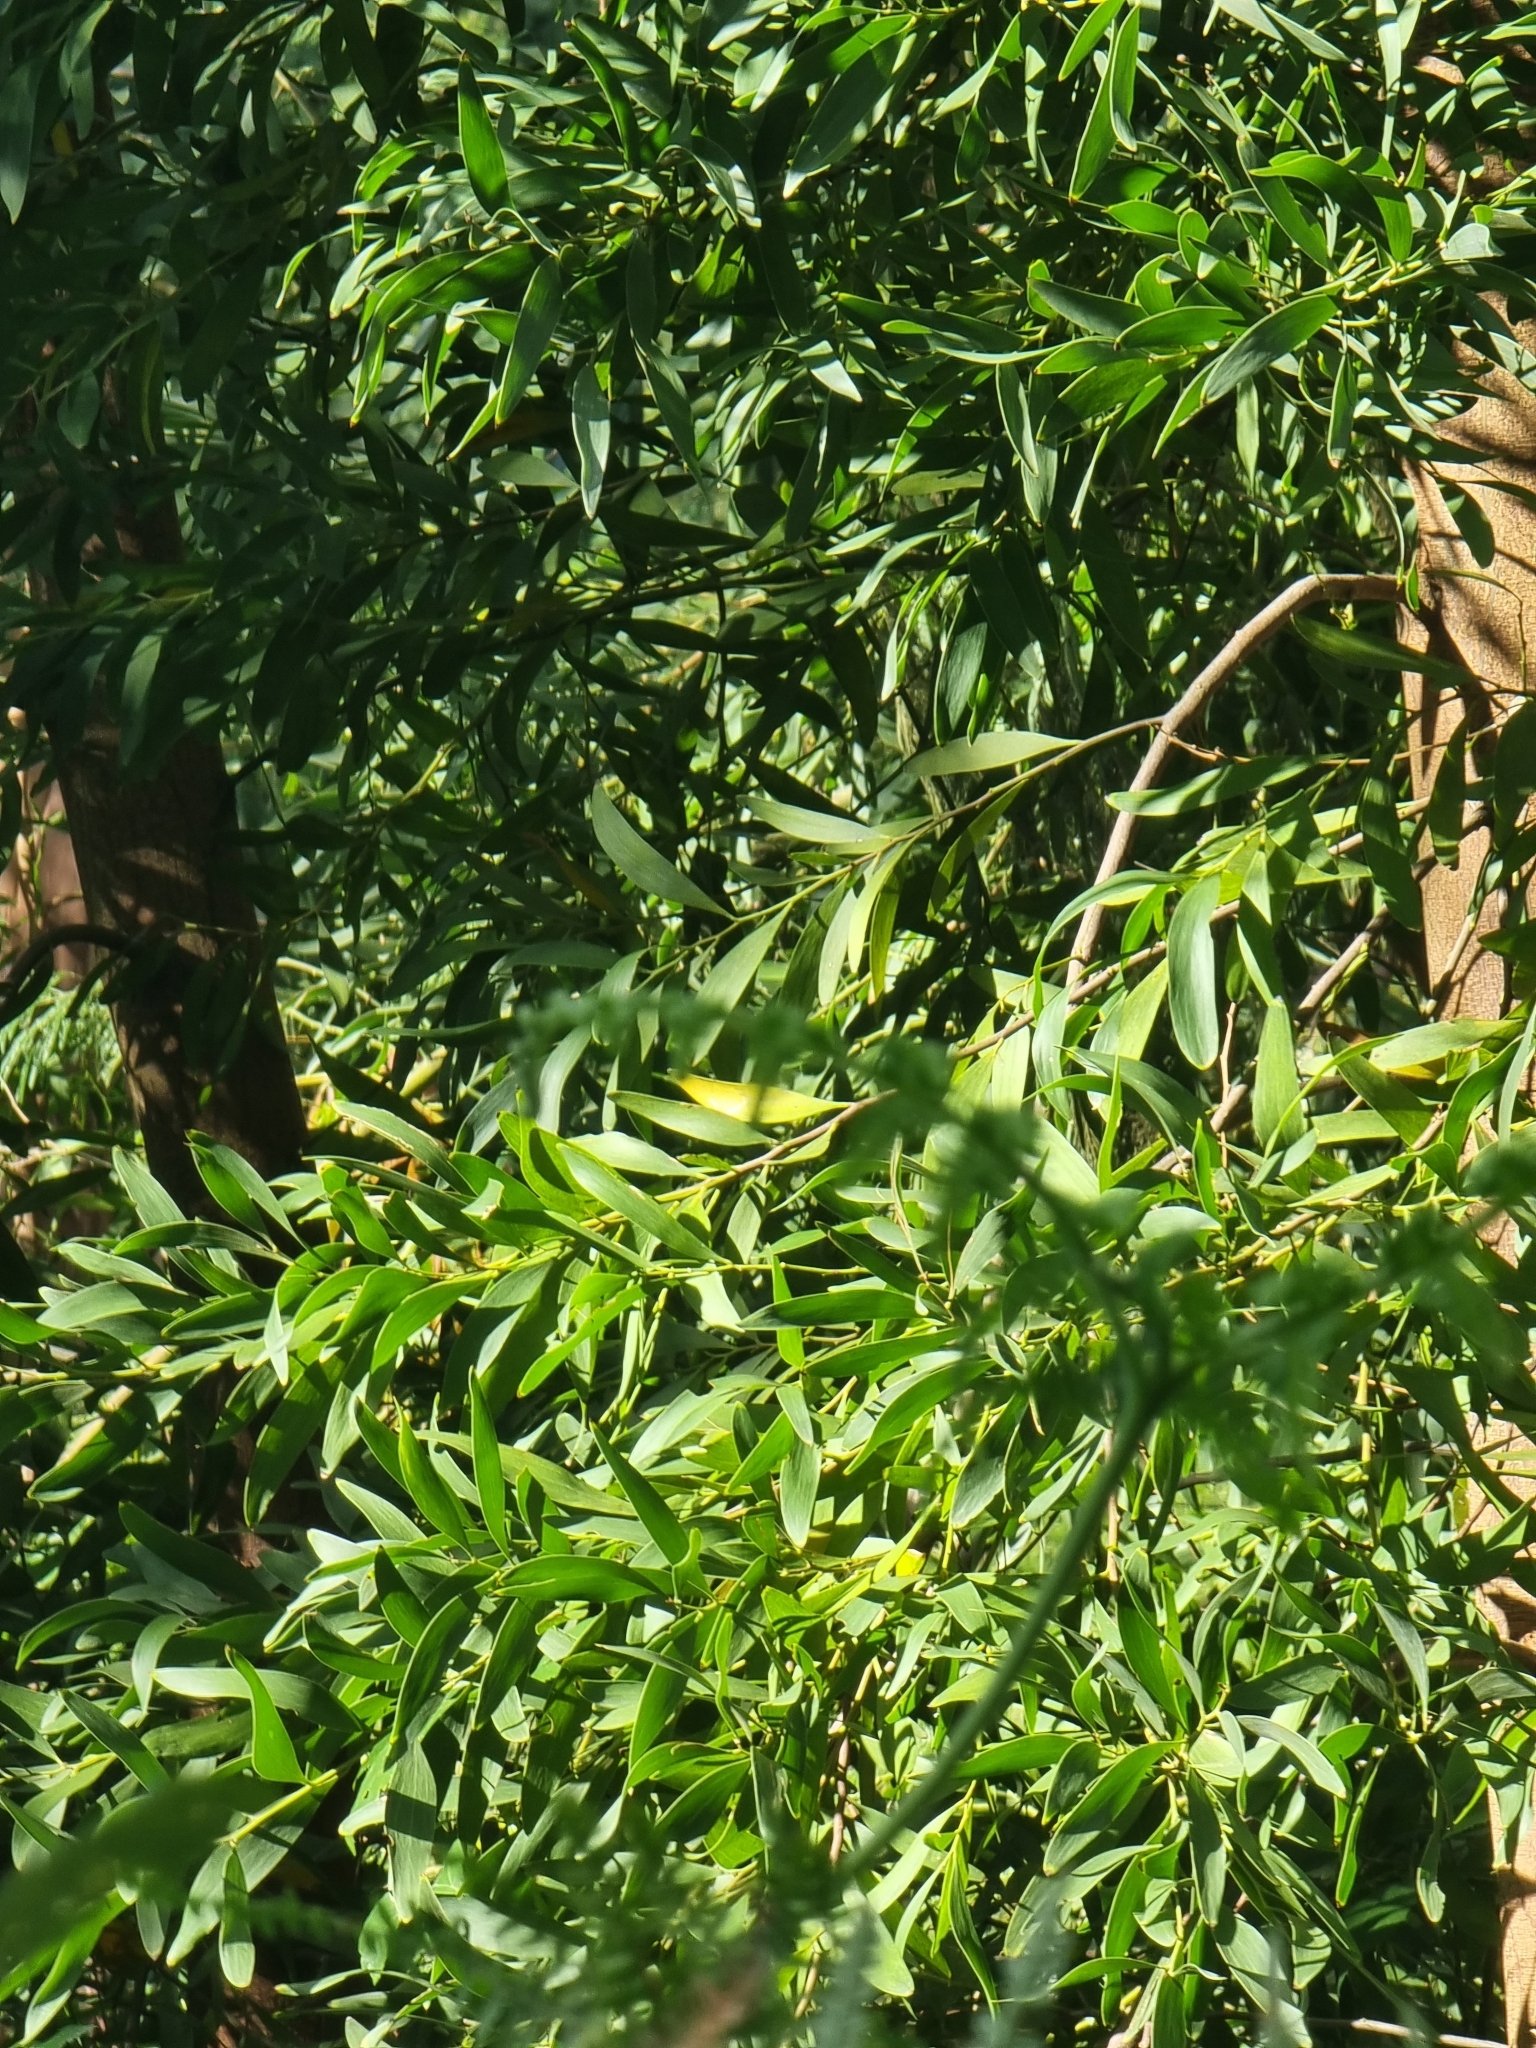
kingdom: Plantae
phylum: Tracheophyta
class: Magnoliopsida
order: Fabales
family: Fabaceae
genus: Acacia
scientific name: Acacia melanoxylon
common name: Blackwood
